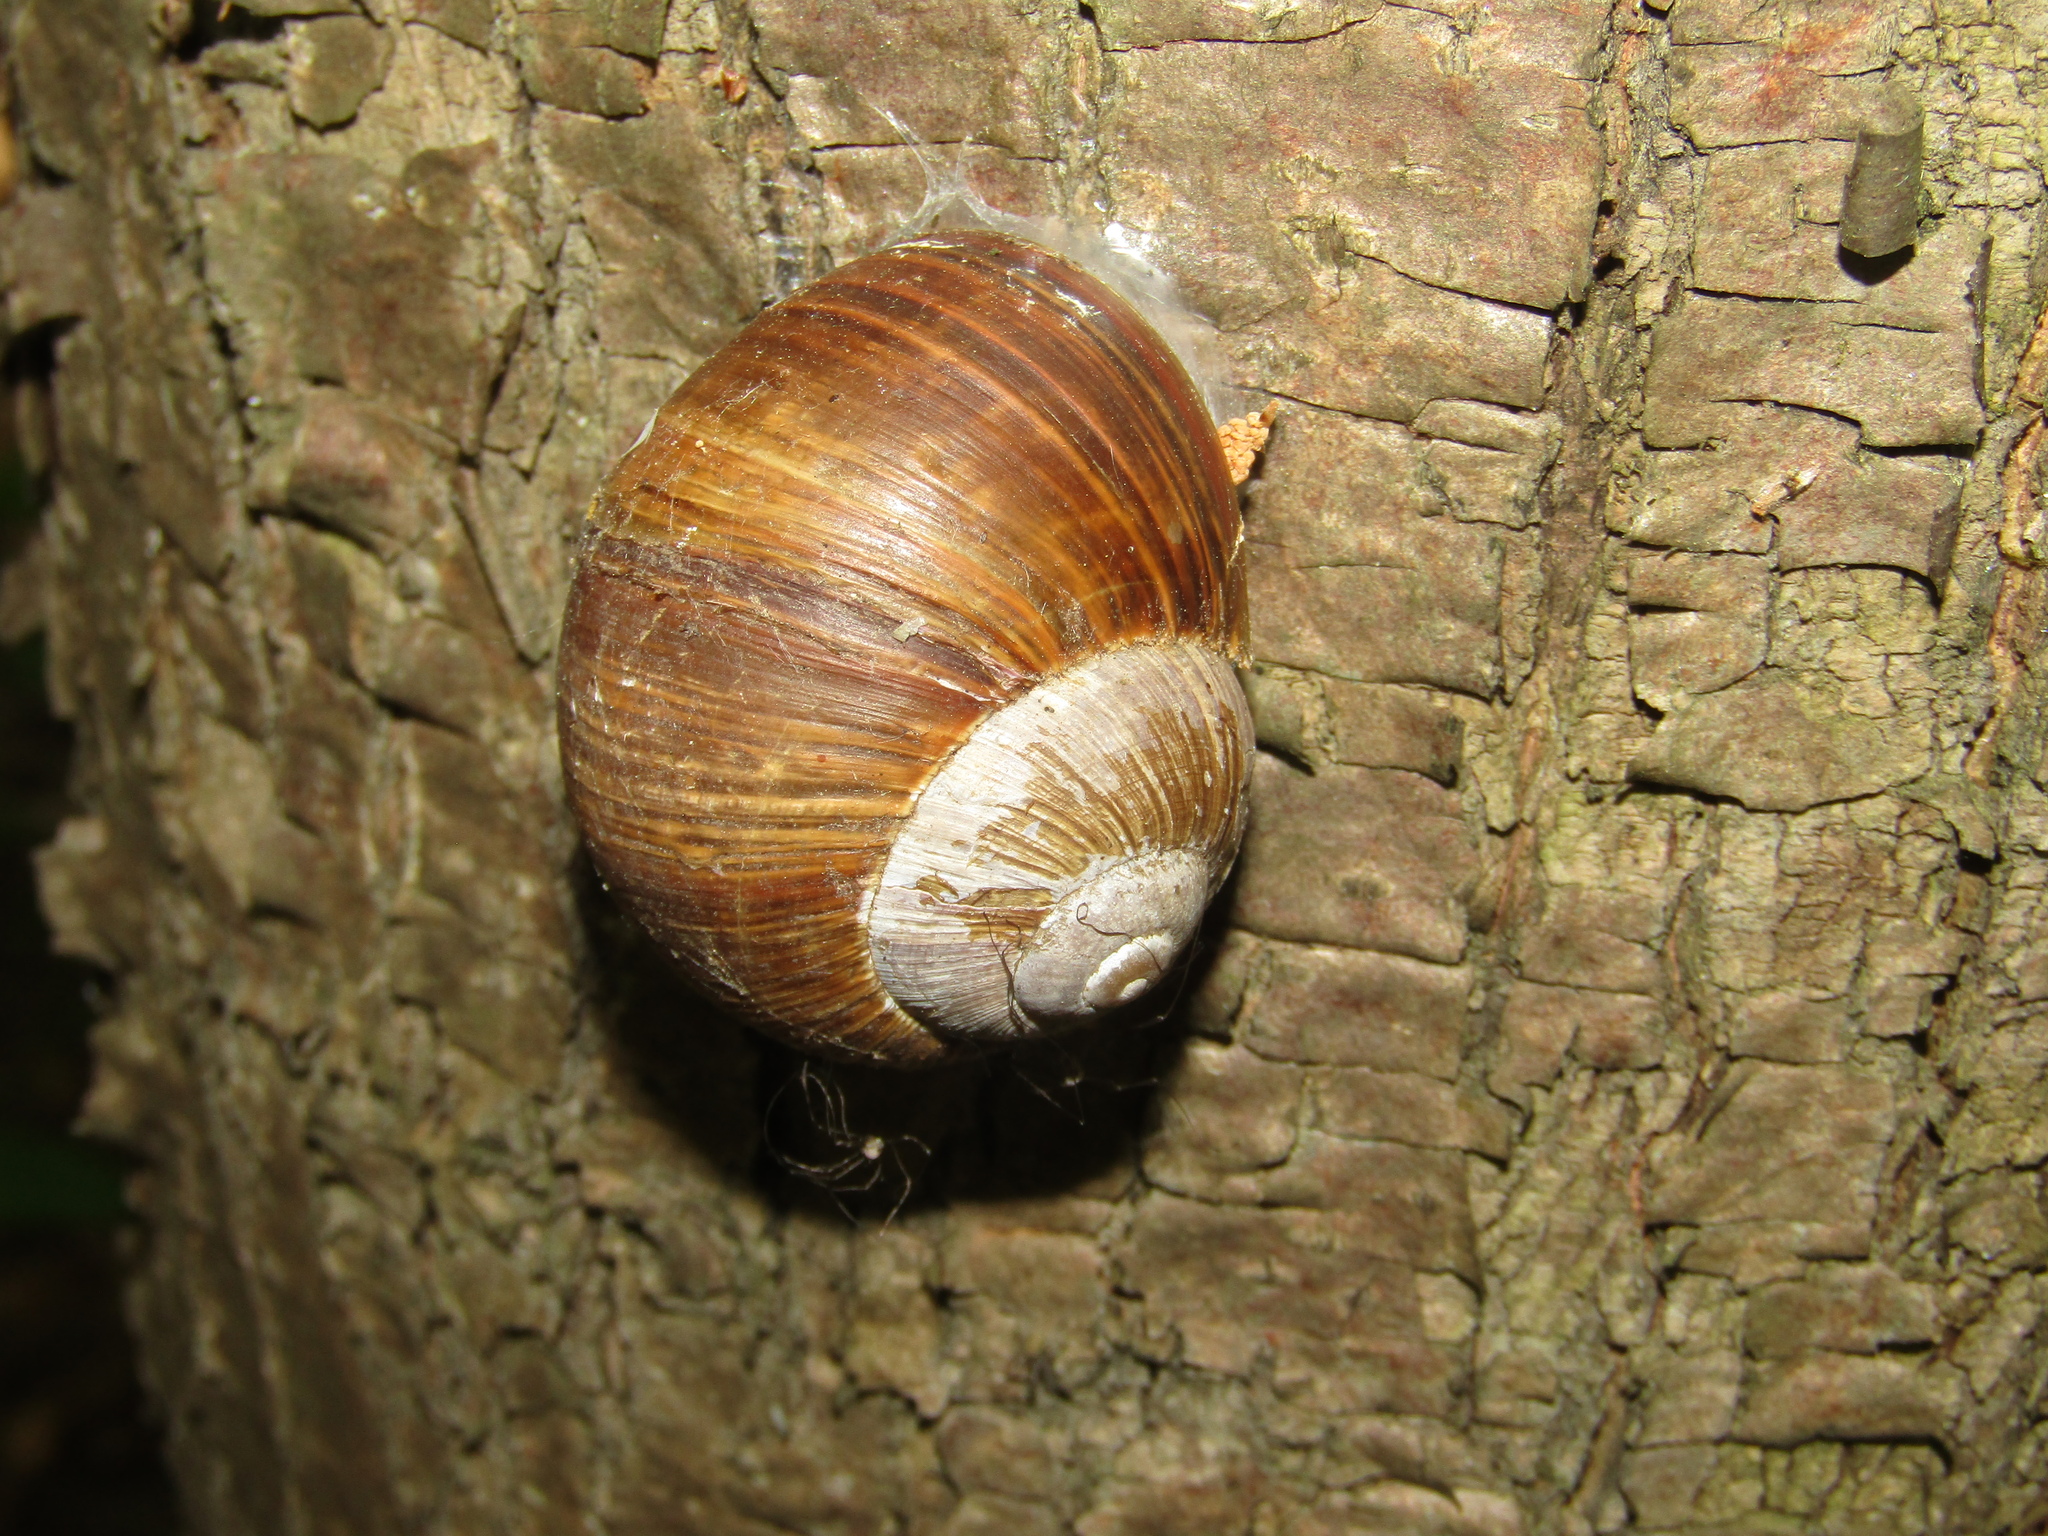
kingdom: Animalia
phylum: Mollusca
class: Gastropoda
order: Stylommatophora
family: Helicidae
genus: Helix
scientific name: Helix pomatia
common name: Roman snail
